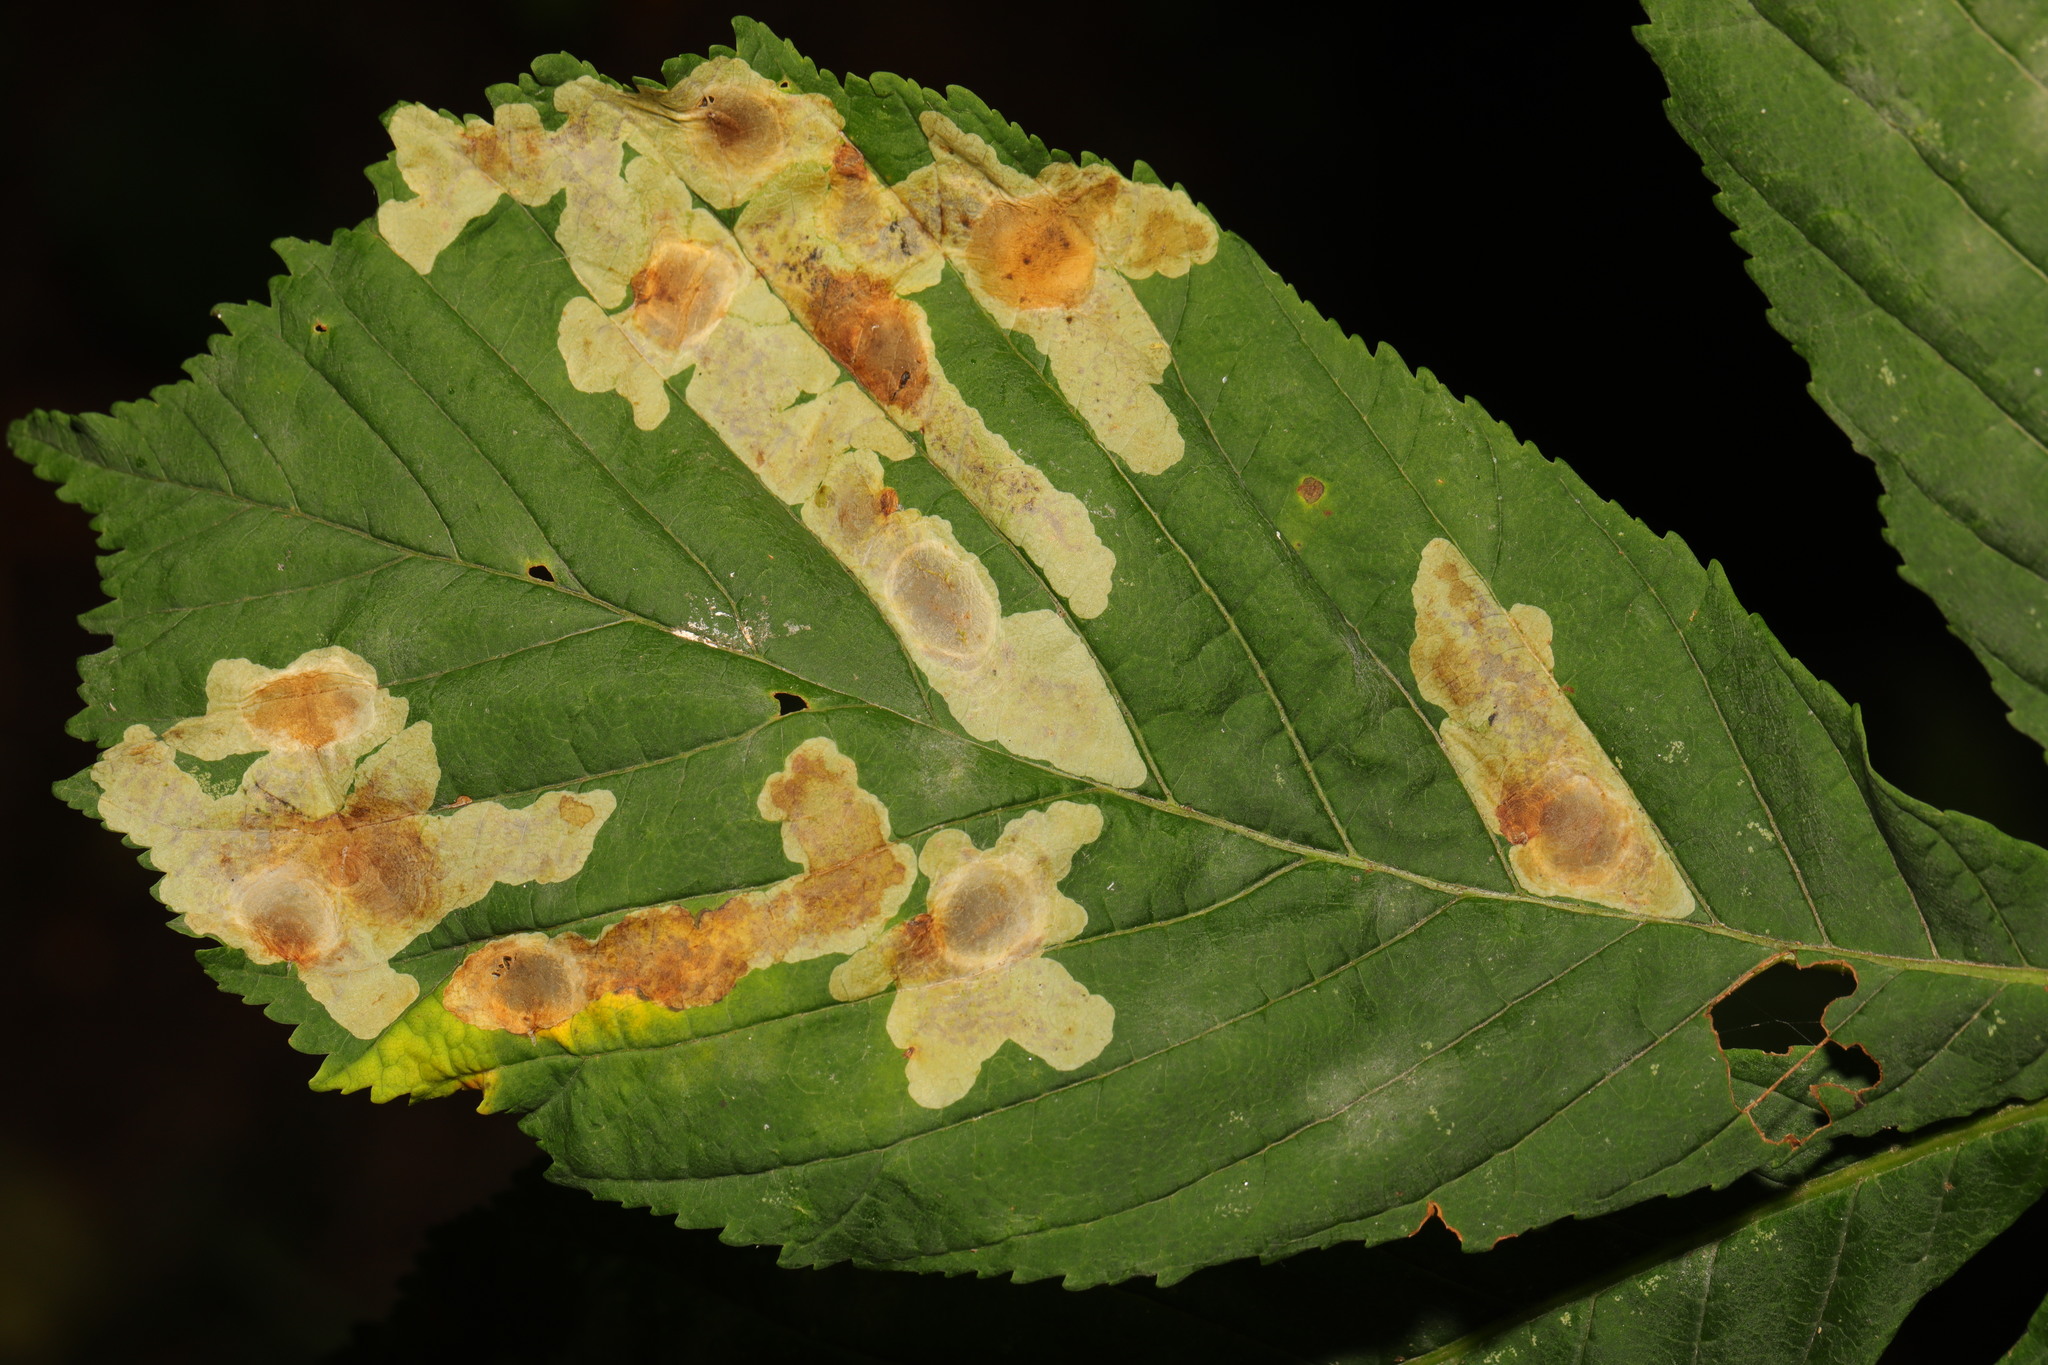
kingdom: Animalia
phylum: Arthropoda
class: Insecta
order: Lepidoptera
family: Gracillariidae
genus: Cameraria
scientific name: Cameraria ohridella
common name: Horse-chestnut leaf-miner
